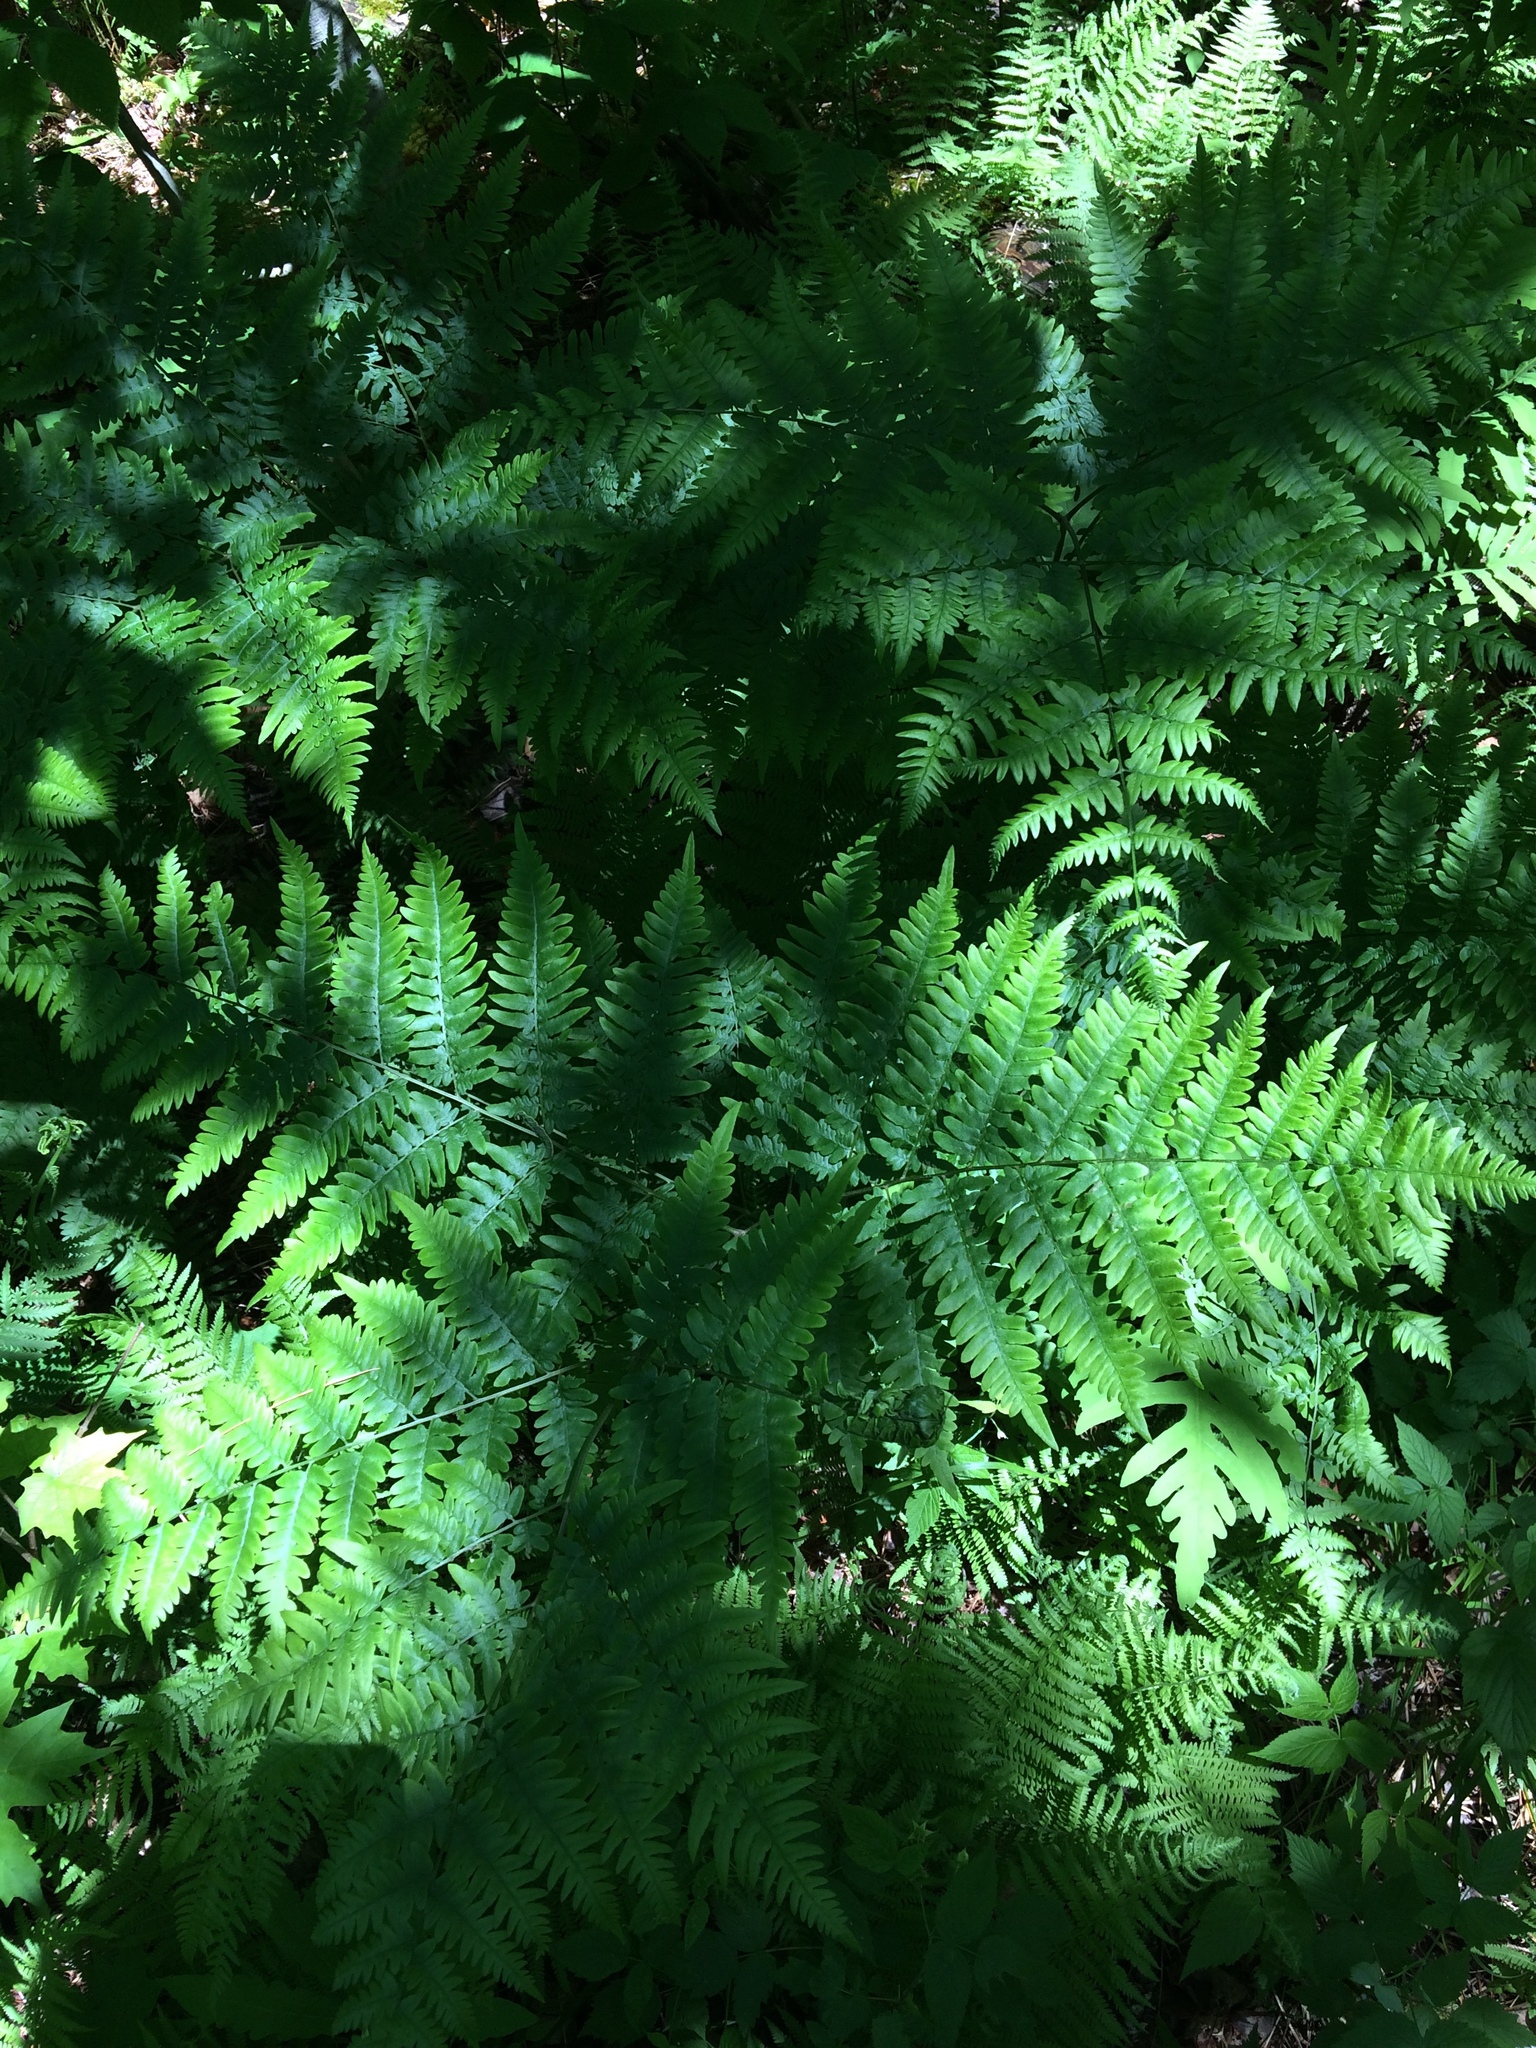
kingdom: Plantae
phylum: Tracheophyta
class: Polypodiopsida
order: Polypodiales
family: Dennstaedtiaceae
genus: Pteridium
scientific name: Pteridium aquilinum
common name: Bracken
